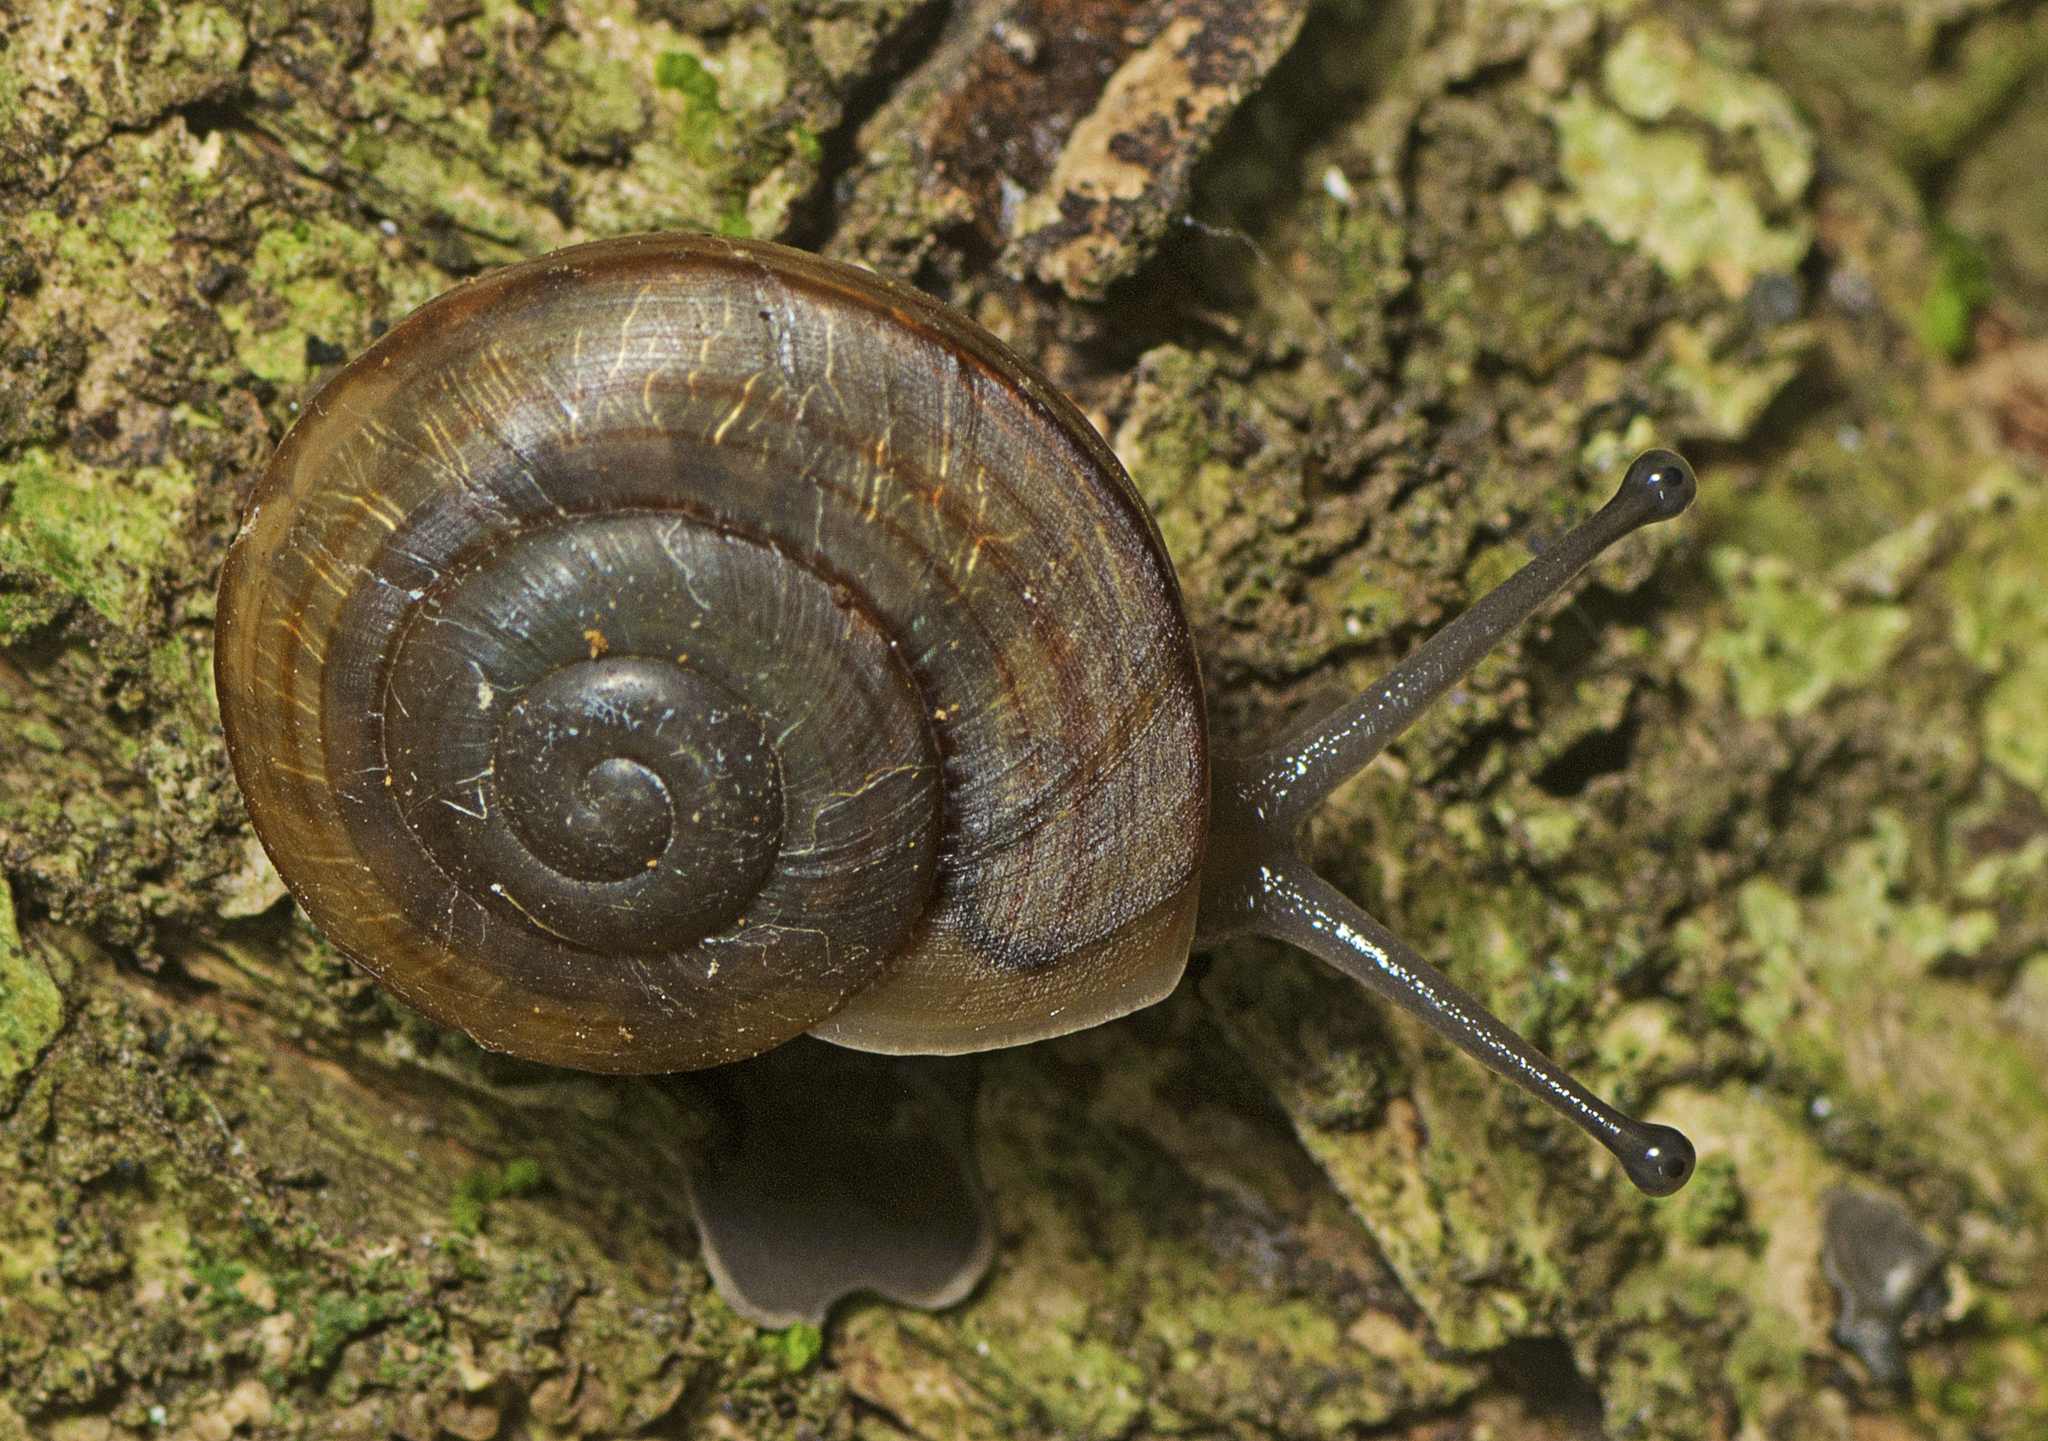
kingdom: Animalia
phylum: Mollusca
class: Gastropoda
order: Stylommatophora
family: Camaenidae
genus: Figuladra
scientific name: Figuladra reducta
